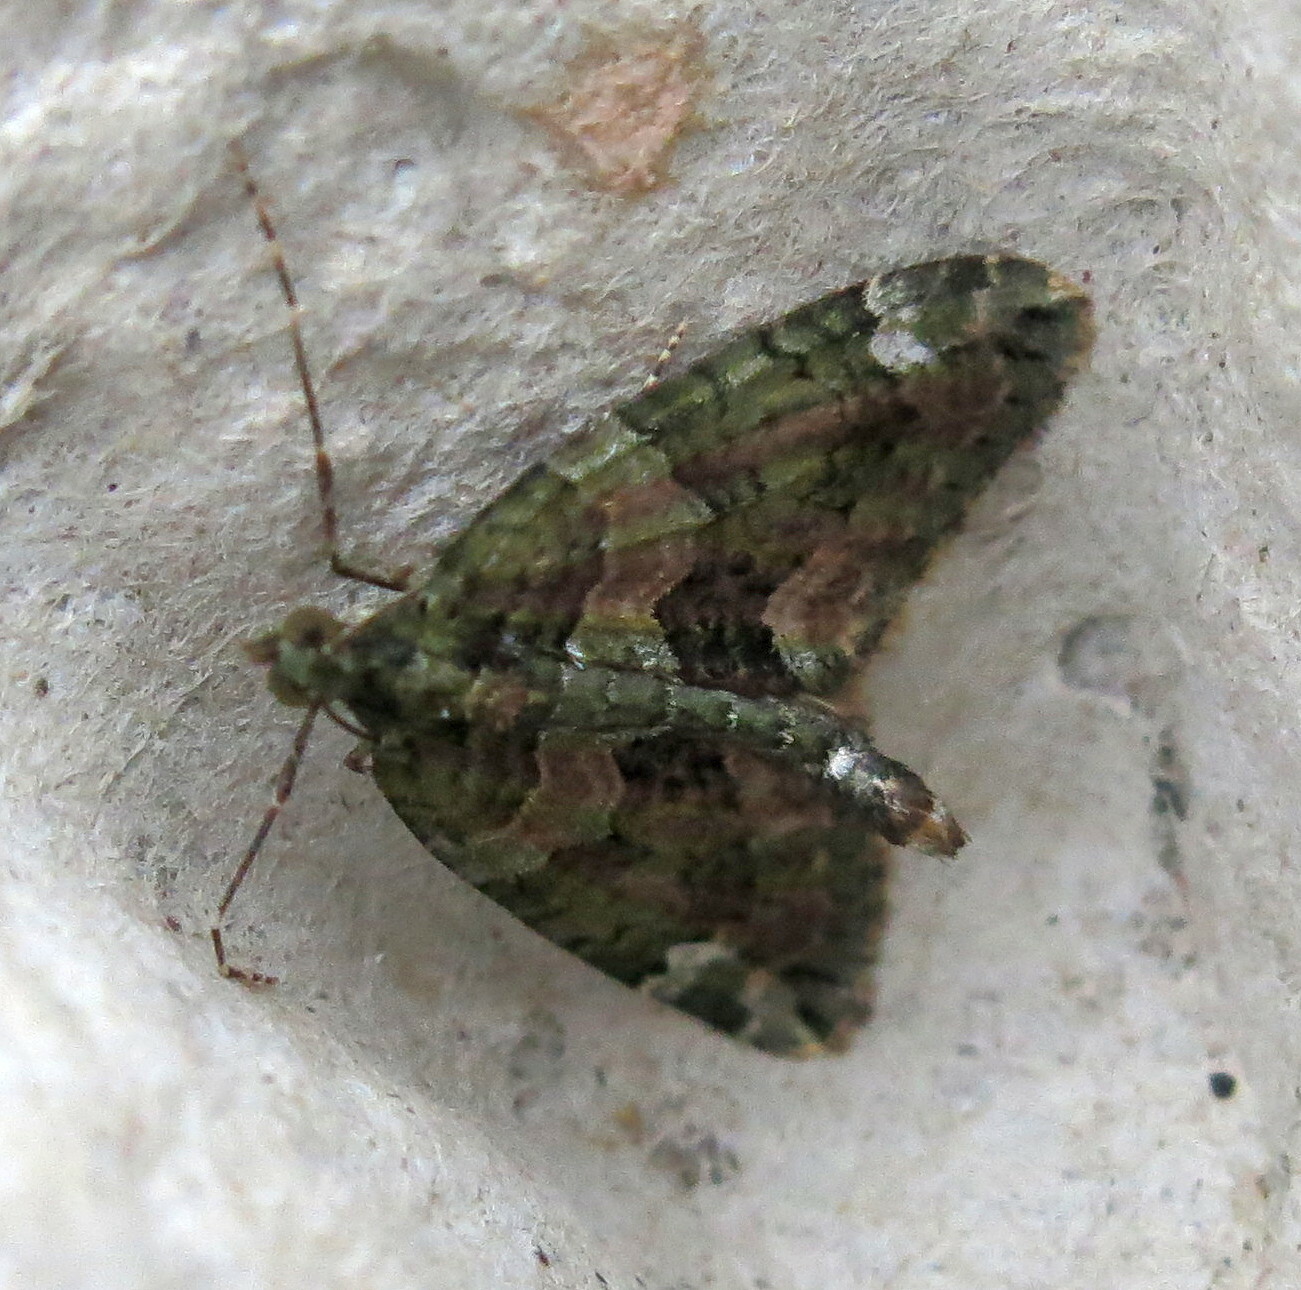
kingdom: Animalia
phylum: Arthropoda
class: Insecta
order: Lepidoptera
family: Geometridae
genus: Chloroclysta
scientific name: Chloroclysta siterata
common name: Red-green carpet
